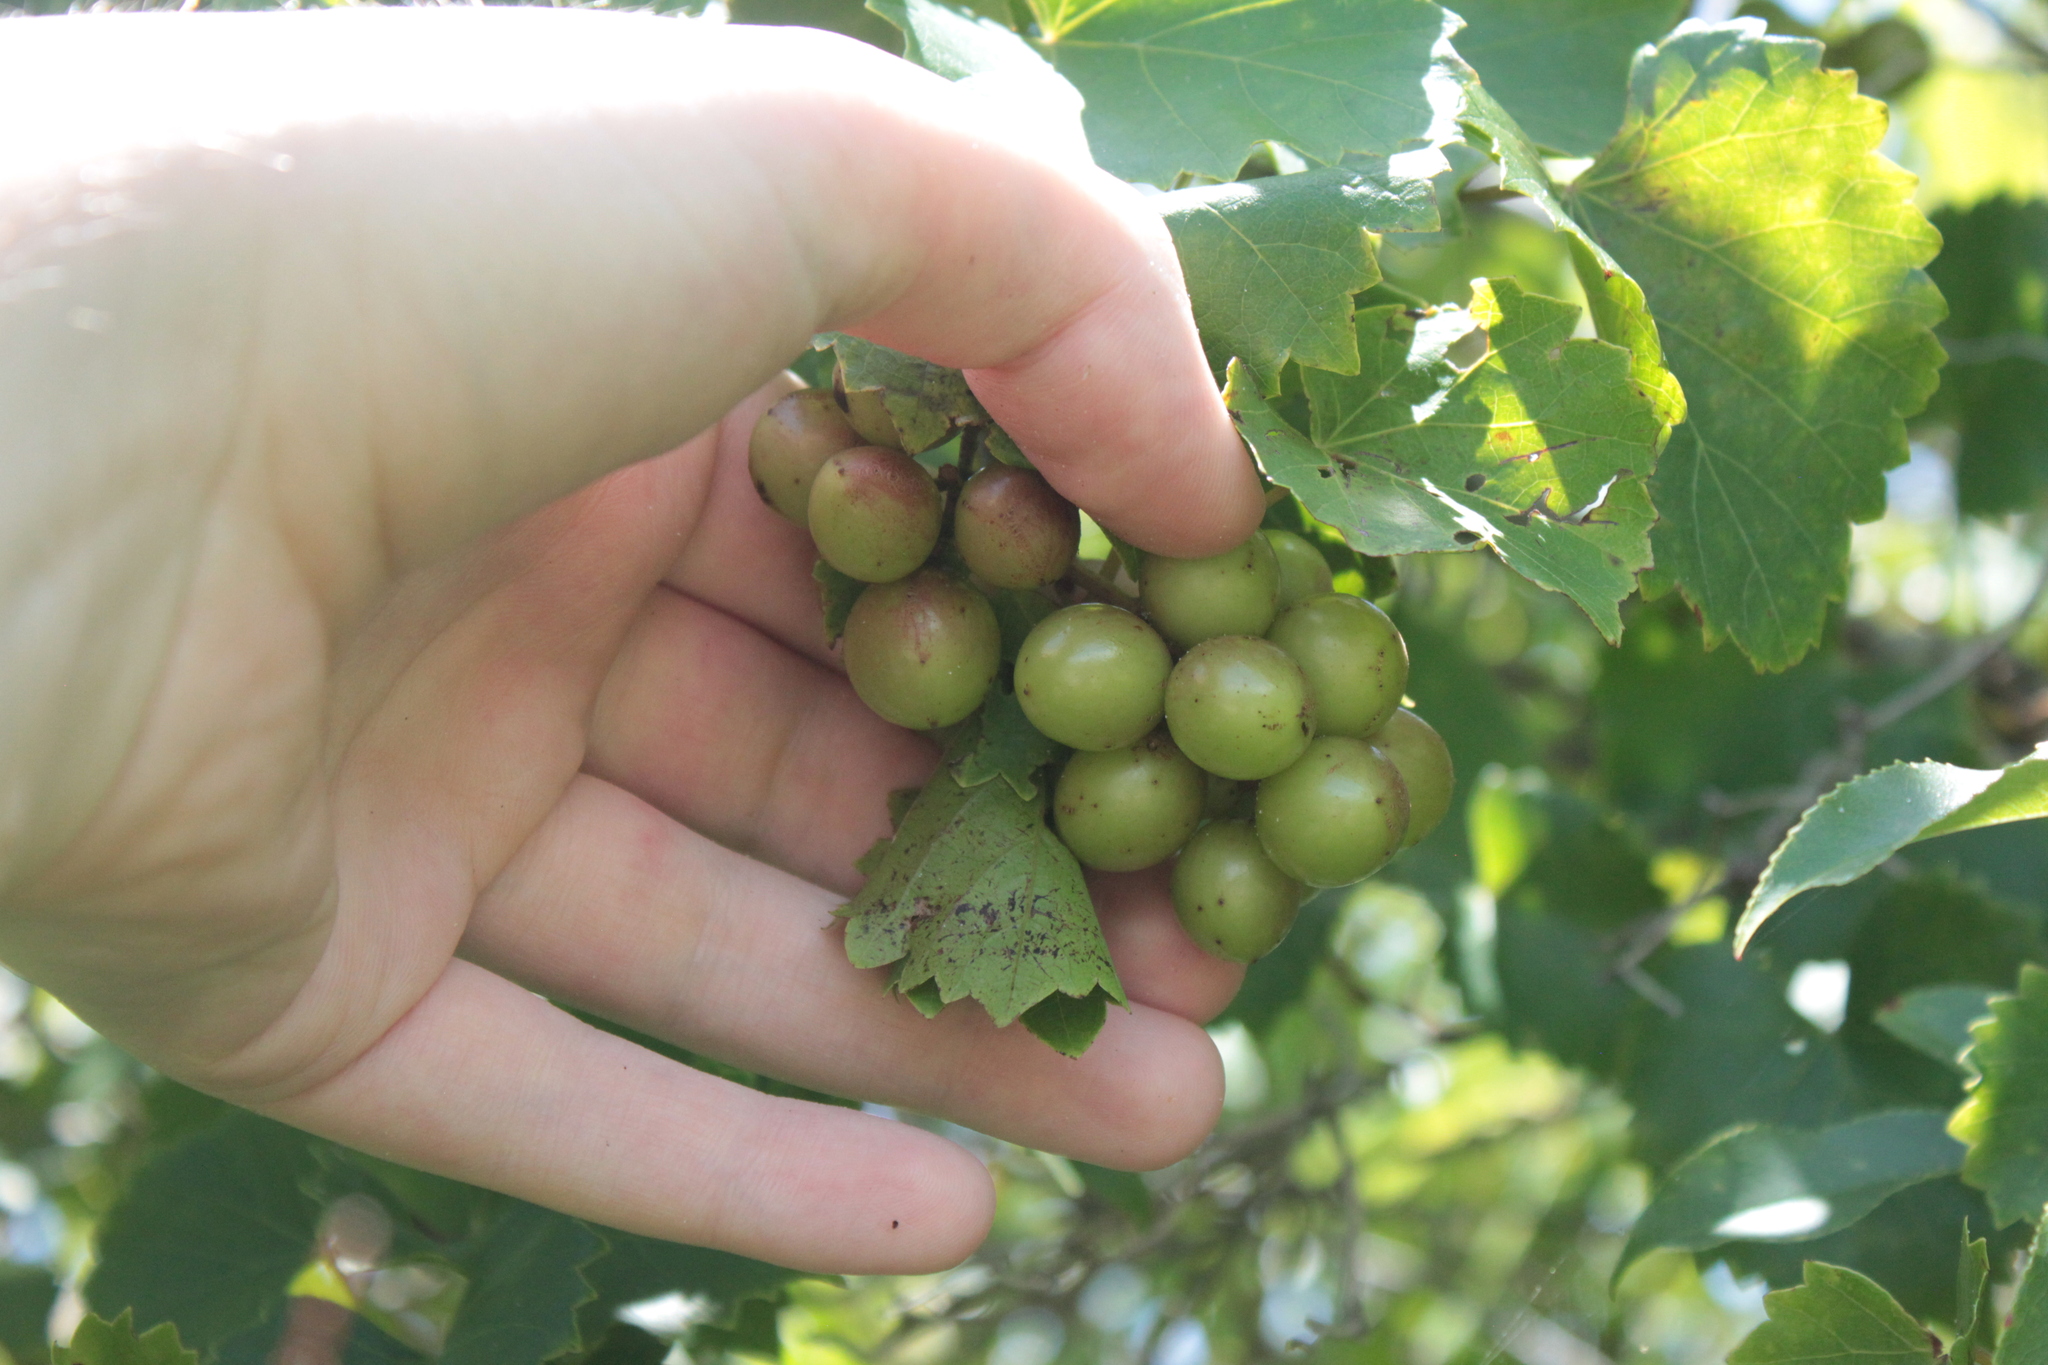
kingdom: Plantae
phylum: Tracheophyta
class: Magnoliopsida
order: Vitales
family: Vitaceae
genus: Vitis
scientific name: Vitis rotundifolia
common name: Muscadine grape
